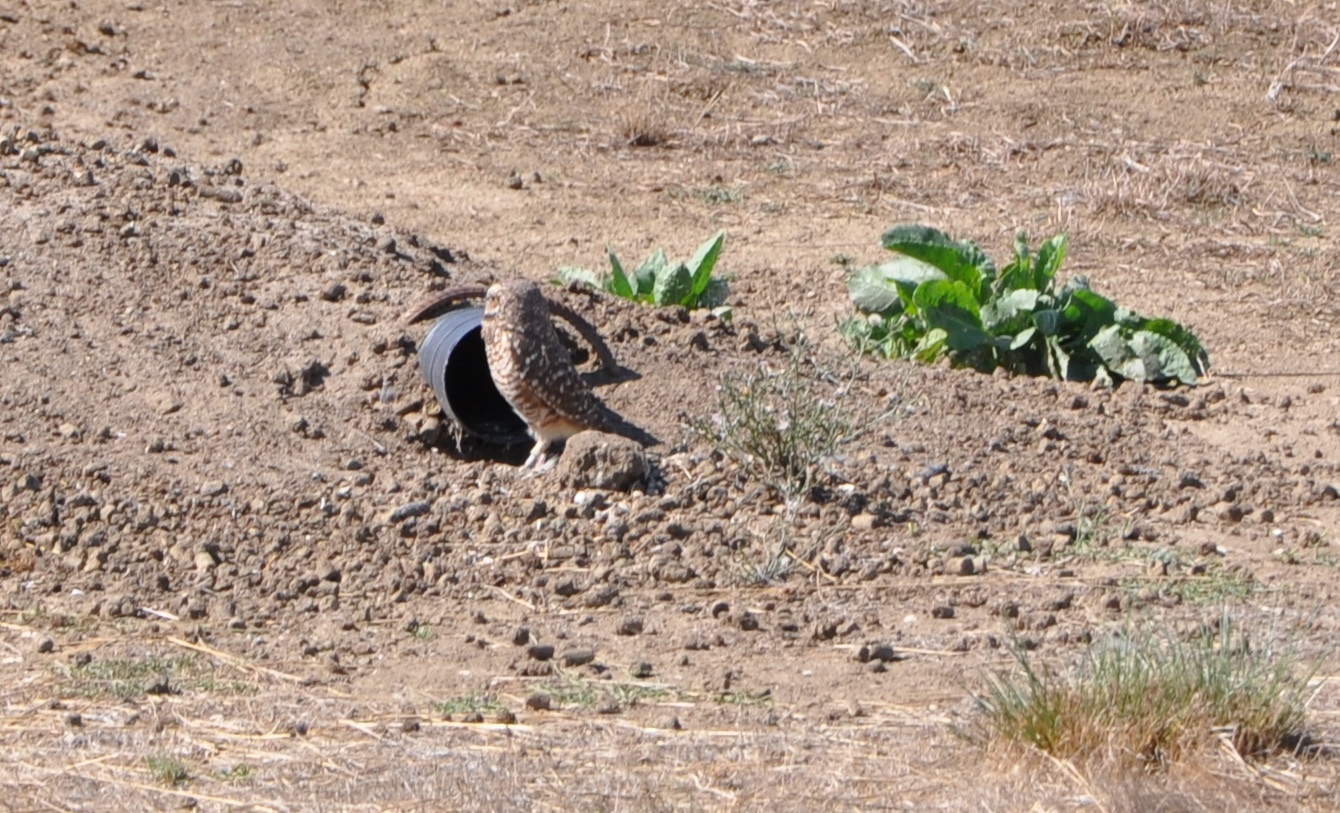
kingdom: Animalia
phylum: Chordata
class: Aves
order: Strigiformes
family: Strigidae
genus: Athene
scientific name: Athene cunicularia
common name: Burrowing owl
